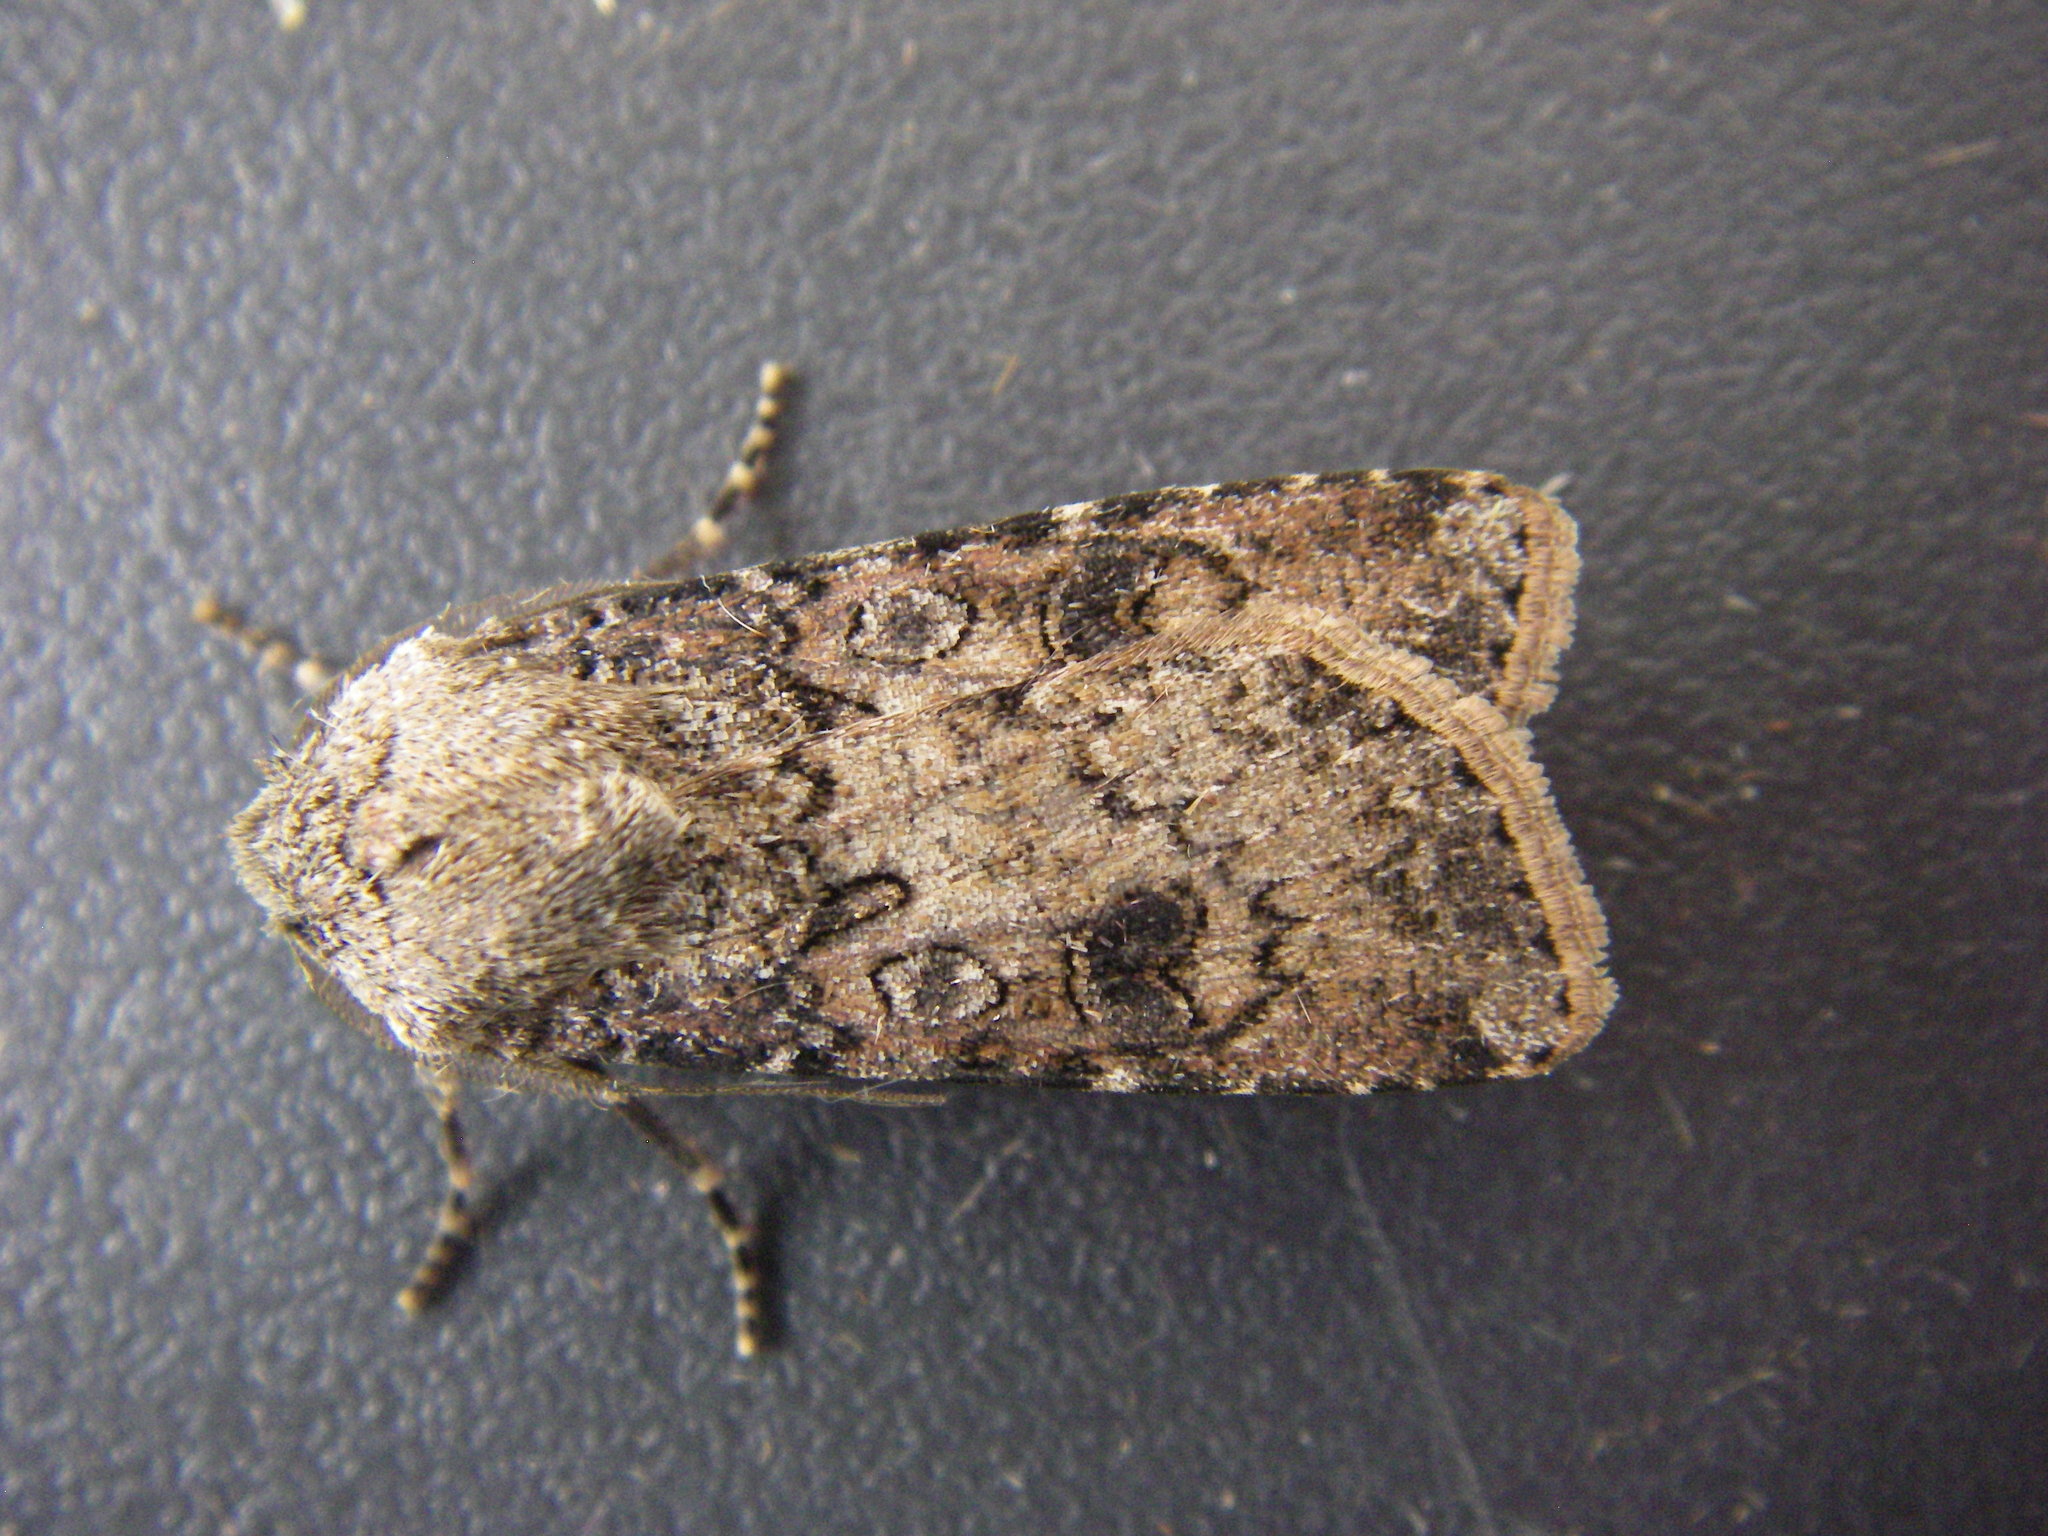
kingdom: Animalia
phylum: Arthropoda
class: Insecta
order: Lepidoptera
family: Noctuidae
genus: Agrotis
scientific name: Agrotis segetum
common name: Turnip moth
